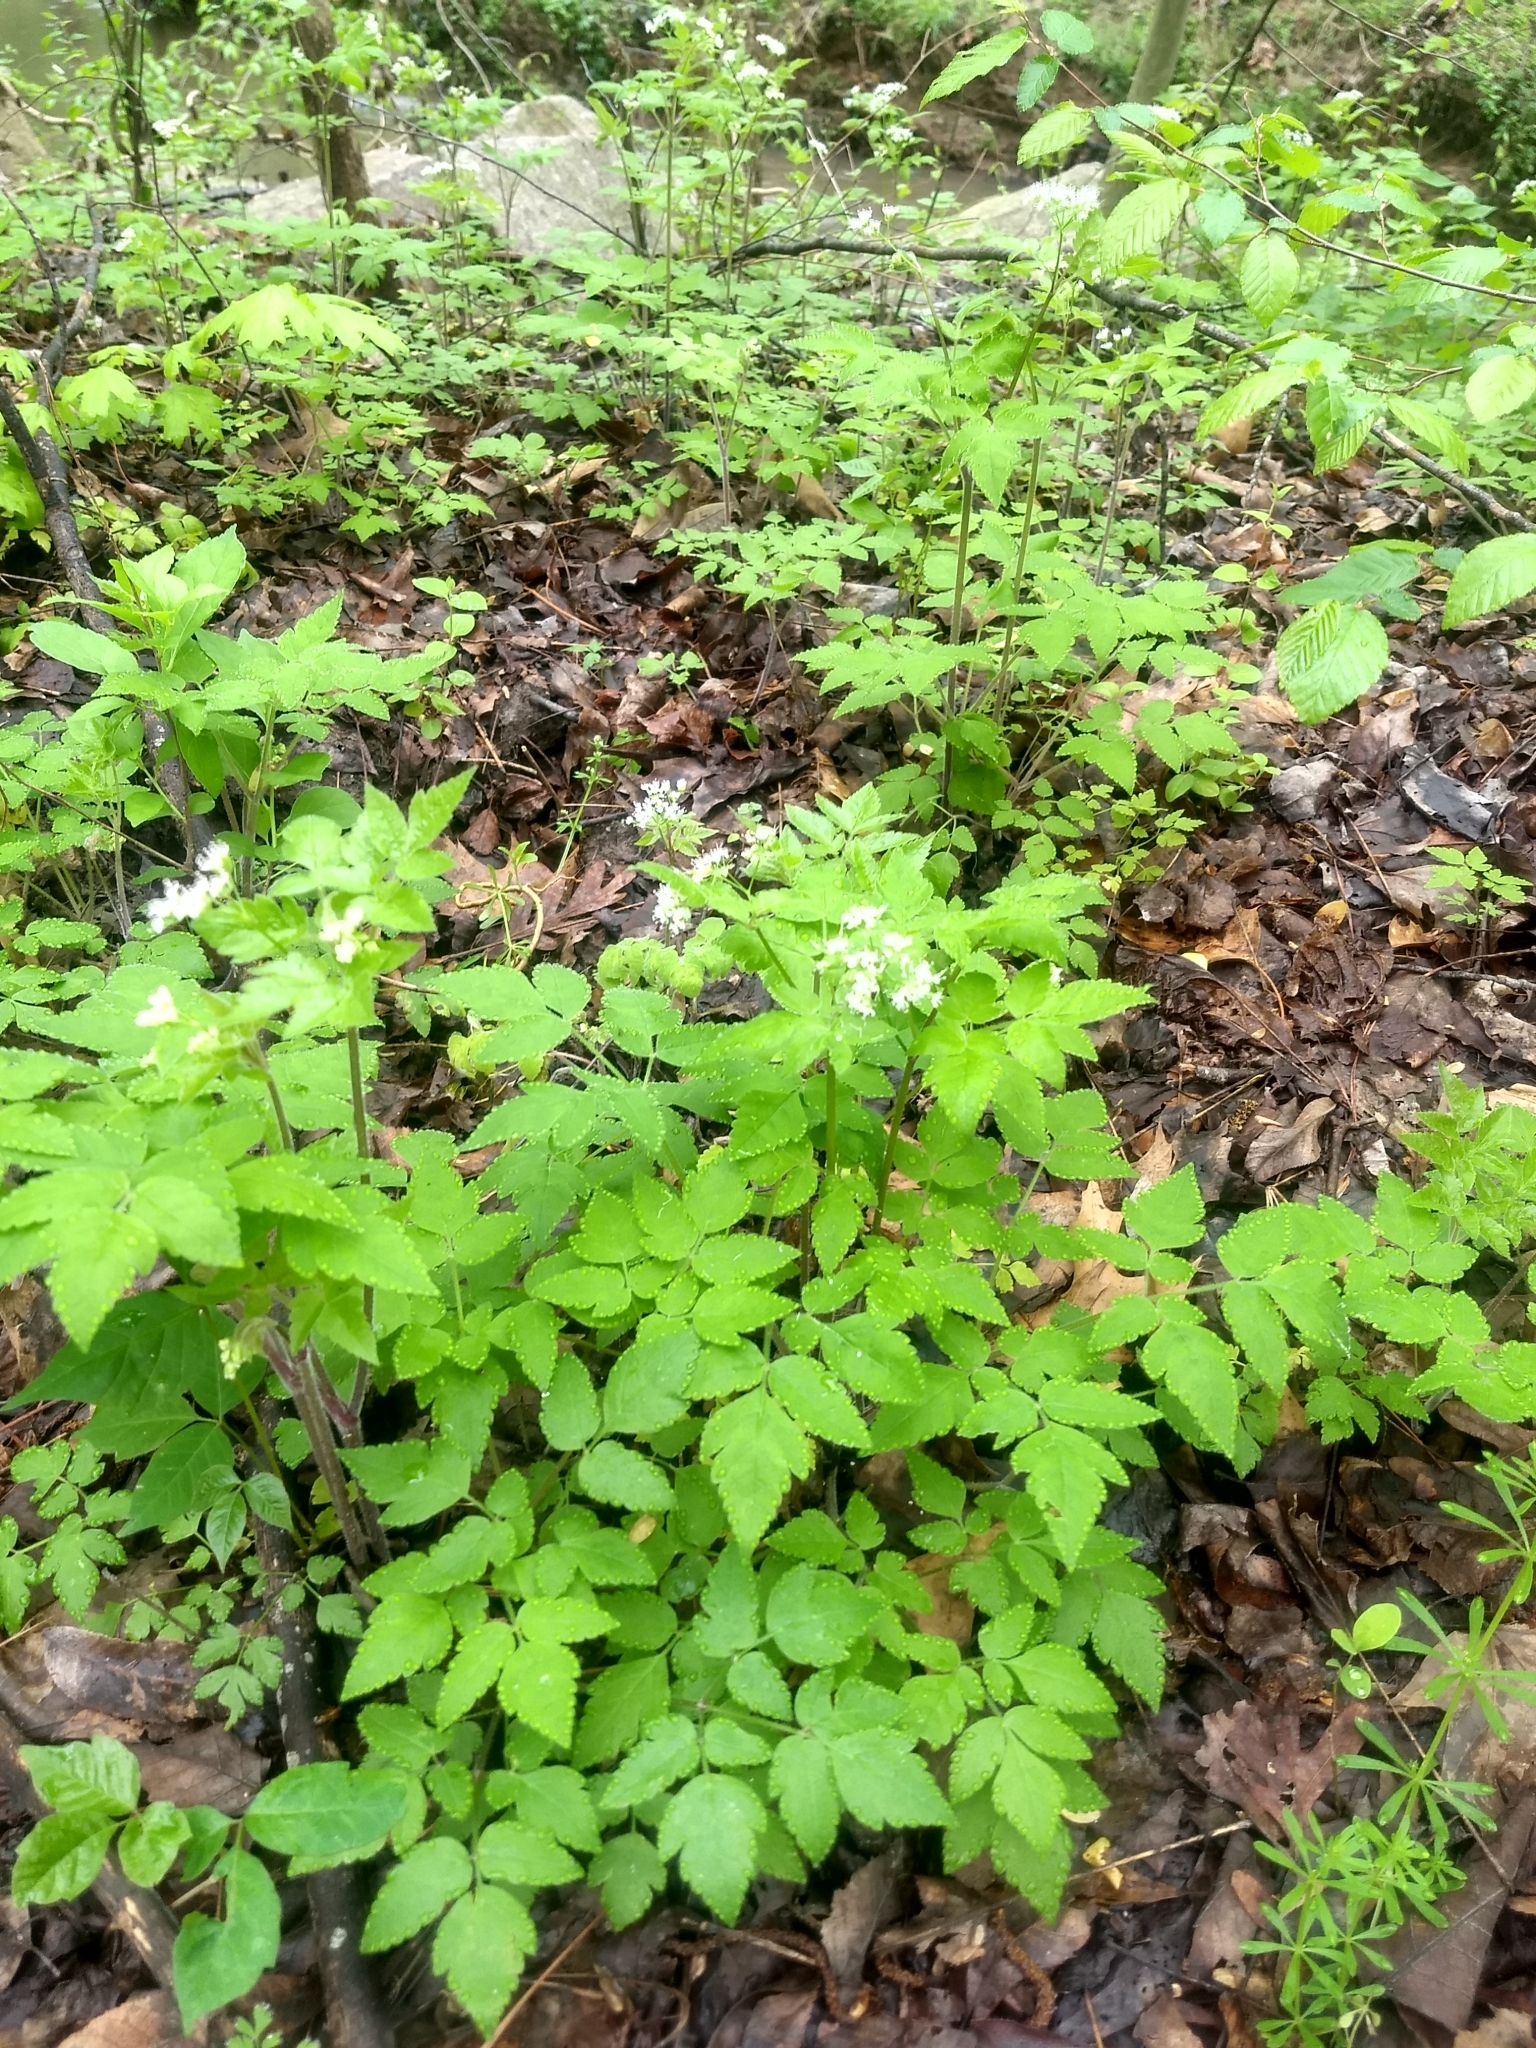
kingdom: Plantae
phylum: Tracheophyta
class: Magnoliopsida
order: Apiales
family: Apiaceae
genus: Osmorhiza
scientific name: Osmorhiza longistylis
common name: Smooth sweet cicely
